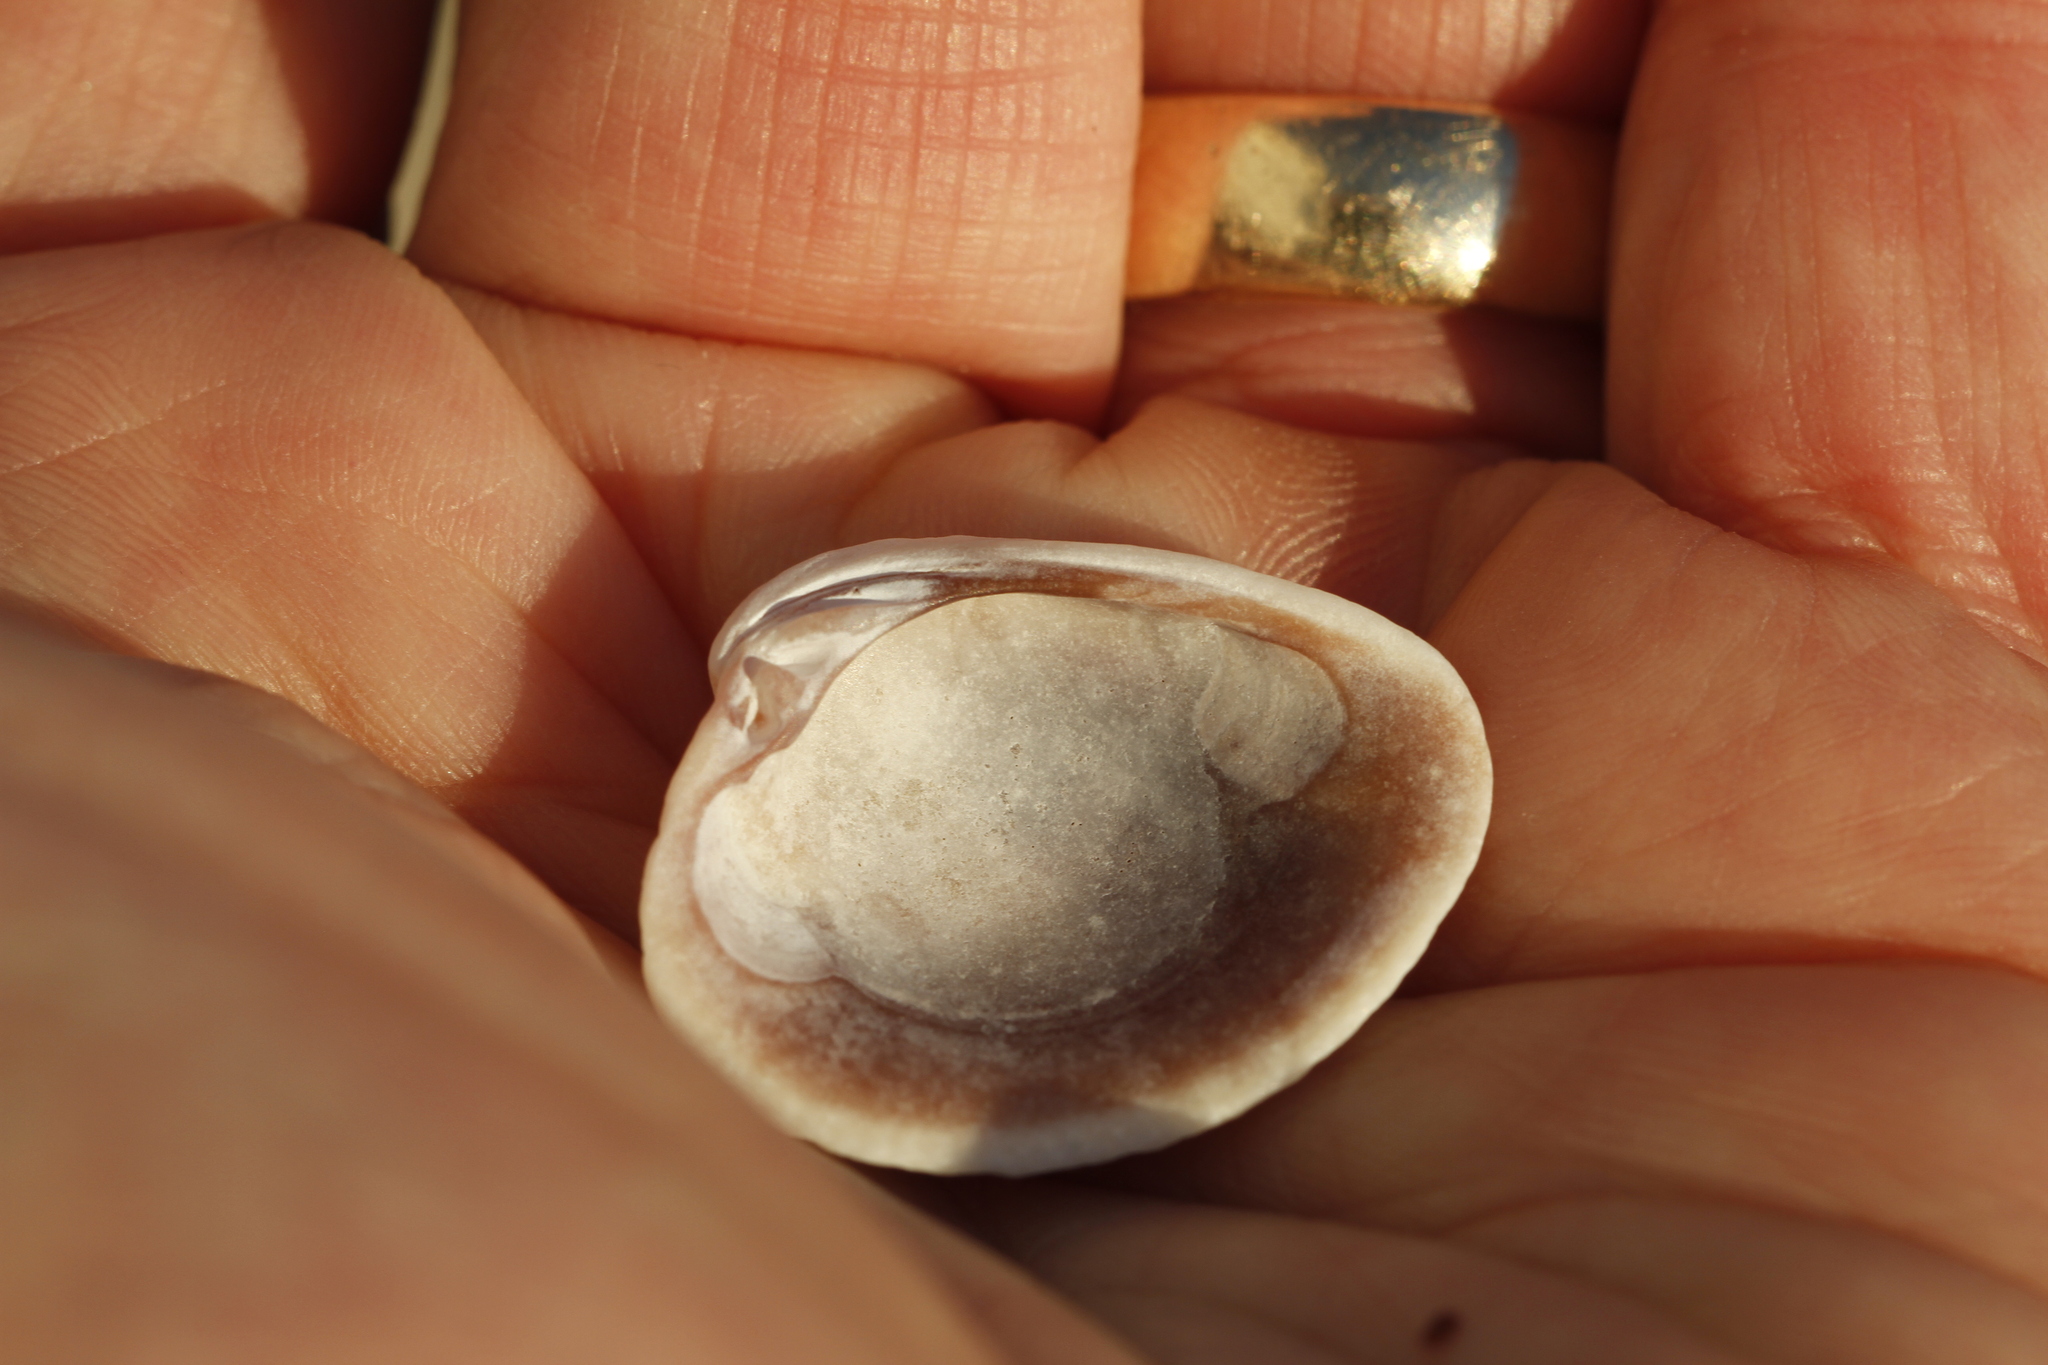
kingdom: Animalia
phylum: Mollusca
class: Bivalvia
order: Venerida
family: Veneridae
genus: Chione
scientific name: Chione elevata
